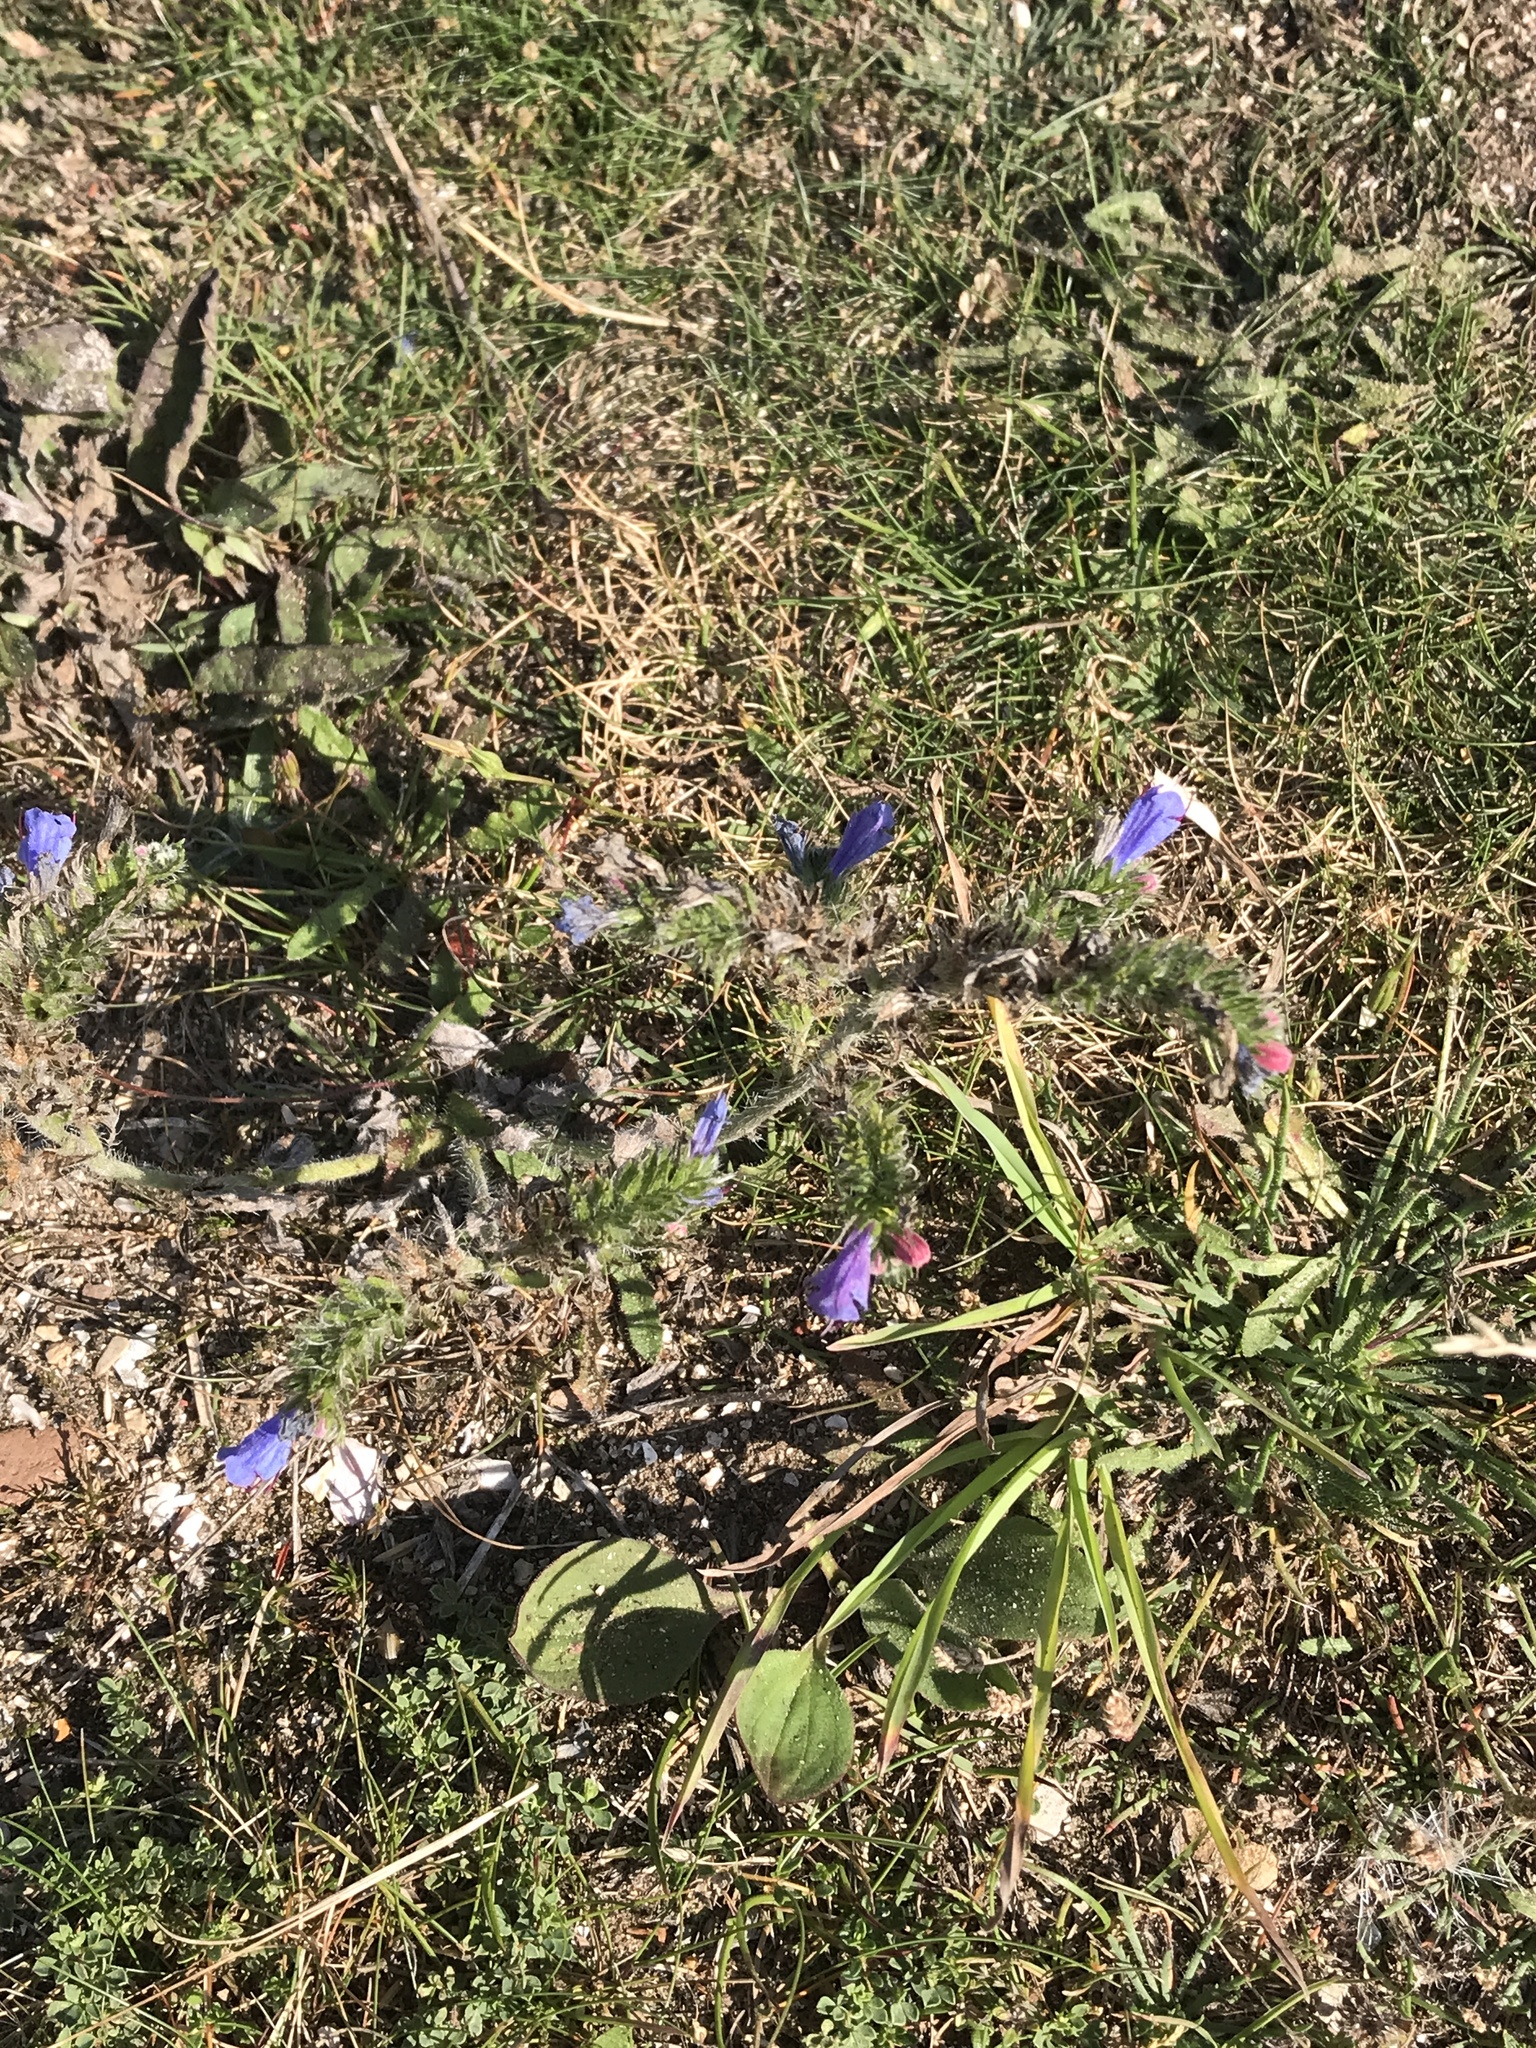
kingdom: Plantae
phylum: Tracheophyta
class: Magnoliopsida
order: Boraginales
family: Boraginaceae
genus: Echium
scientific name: Echium vulgare
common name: Common viper's bugloss
